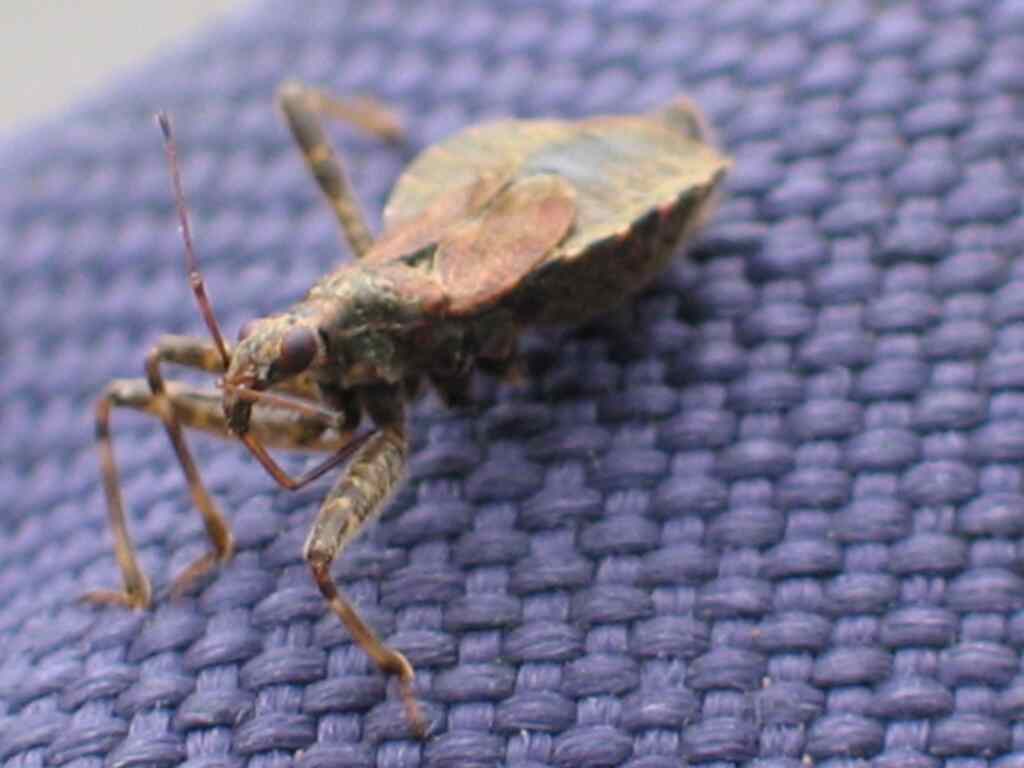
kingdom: Animalia
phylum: Arthropoda
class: Insecta
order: Hemiptera
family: Nabidae
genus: Himacerus
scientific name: Himacerus apterus
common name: Tree damsel bug
